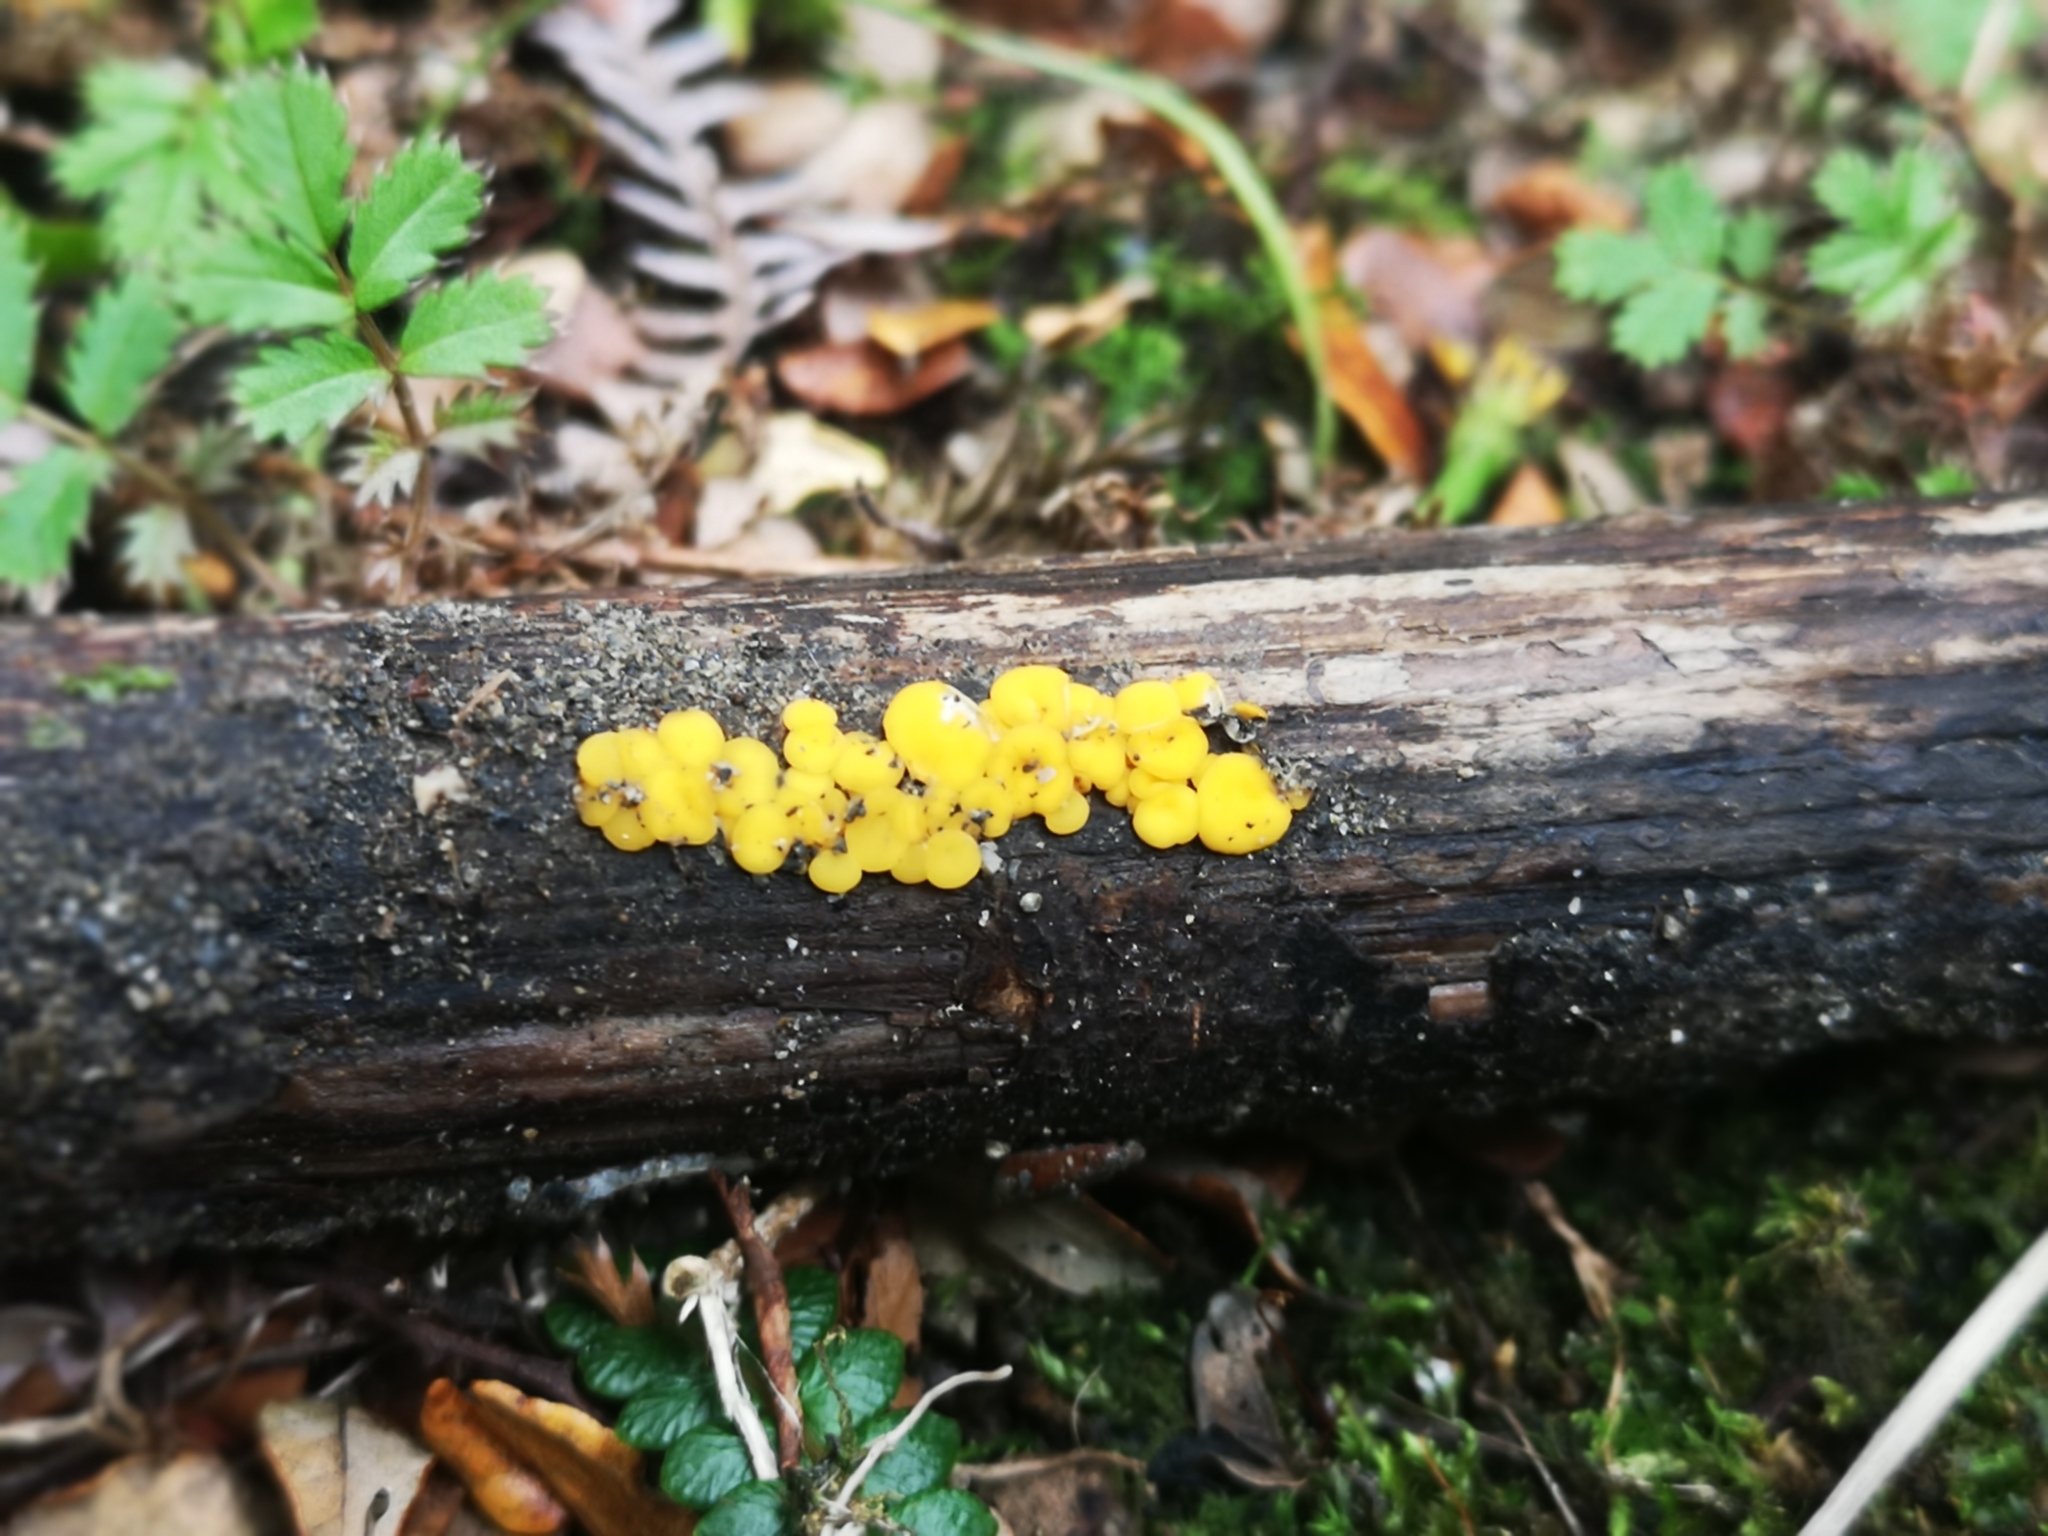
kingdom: Fungi
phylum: Ascomycota
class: Leotiomycetes
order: Helotiales
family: Pezizellaceae
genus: Calycina
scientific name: Calycina citrina
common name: Yellow fairy cups
